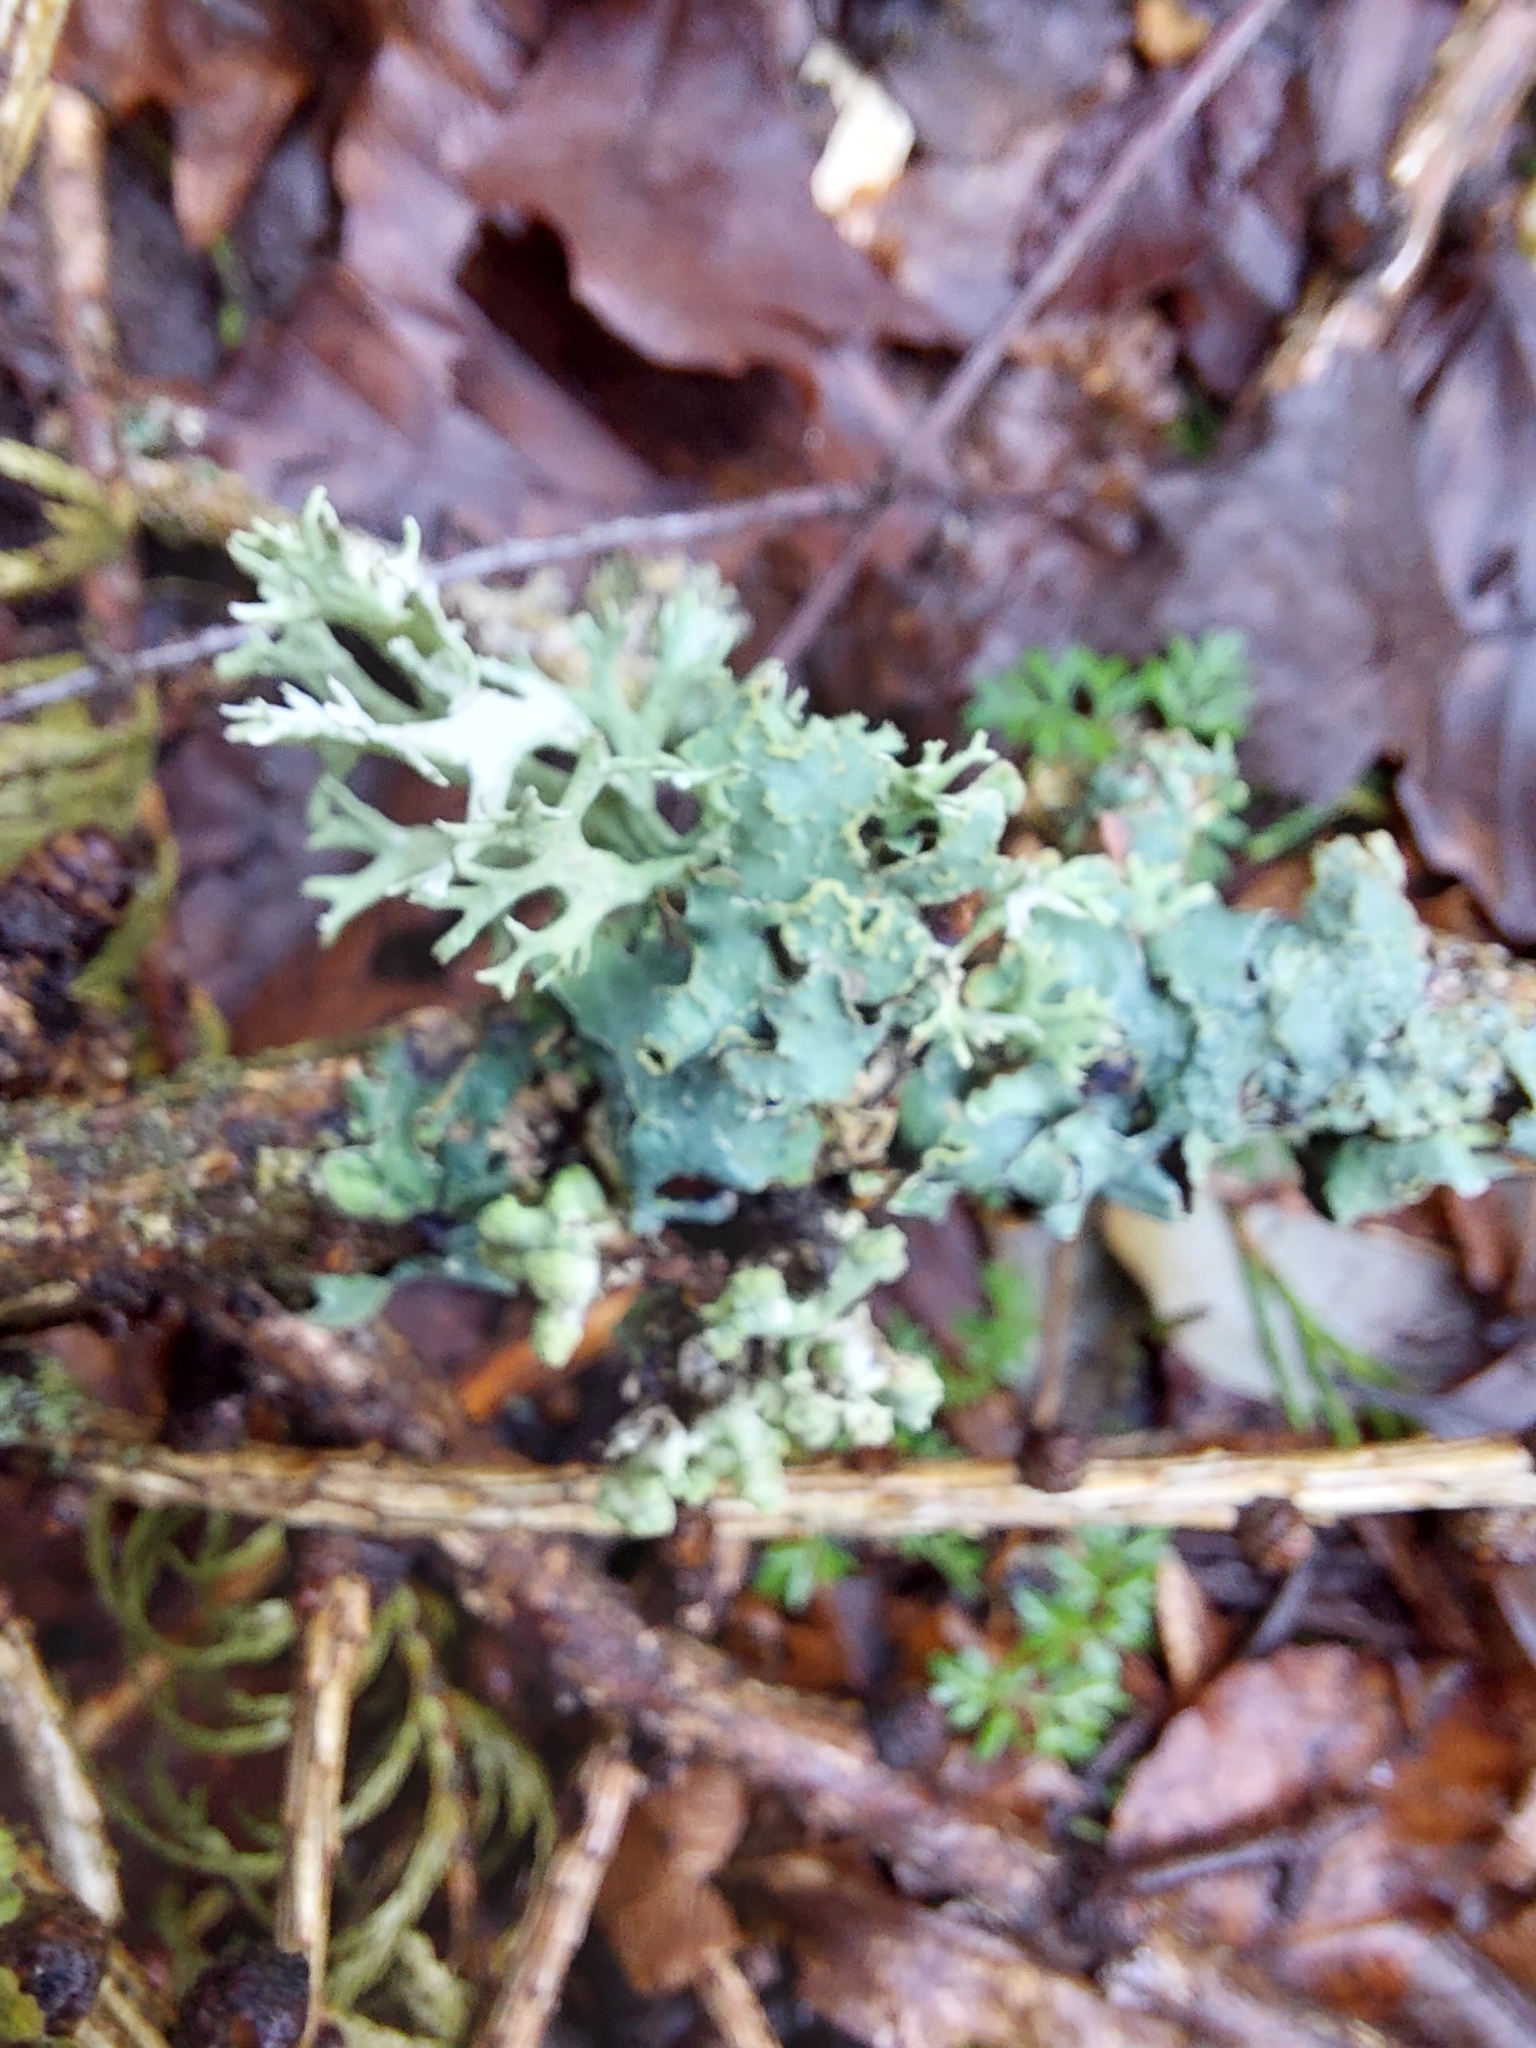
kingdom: Fungi
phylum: Ascomycota
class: Lecanoromycetes
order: Lecanorales
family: Parmeliaceae
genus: Evernia
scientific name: Evernia prunastri
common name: Oak moss
